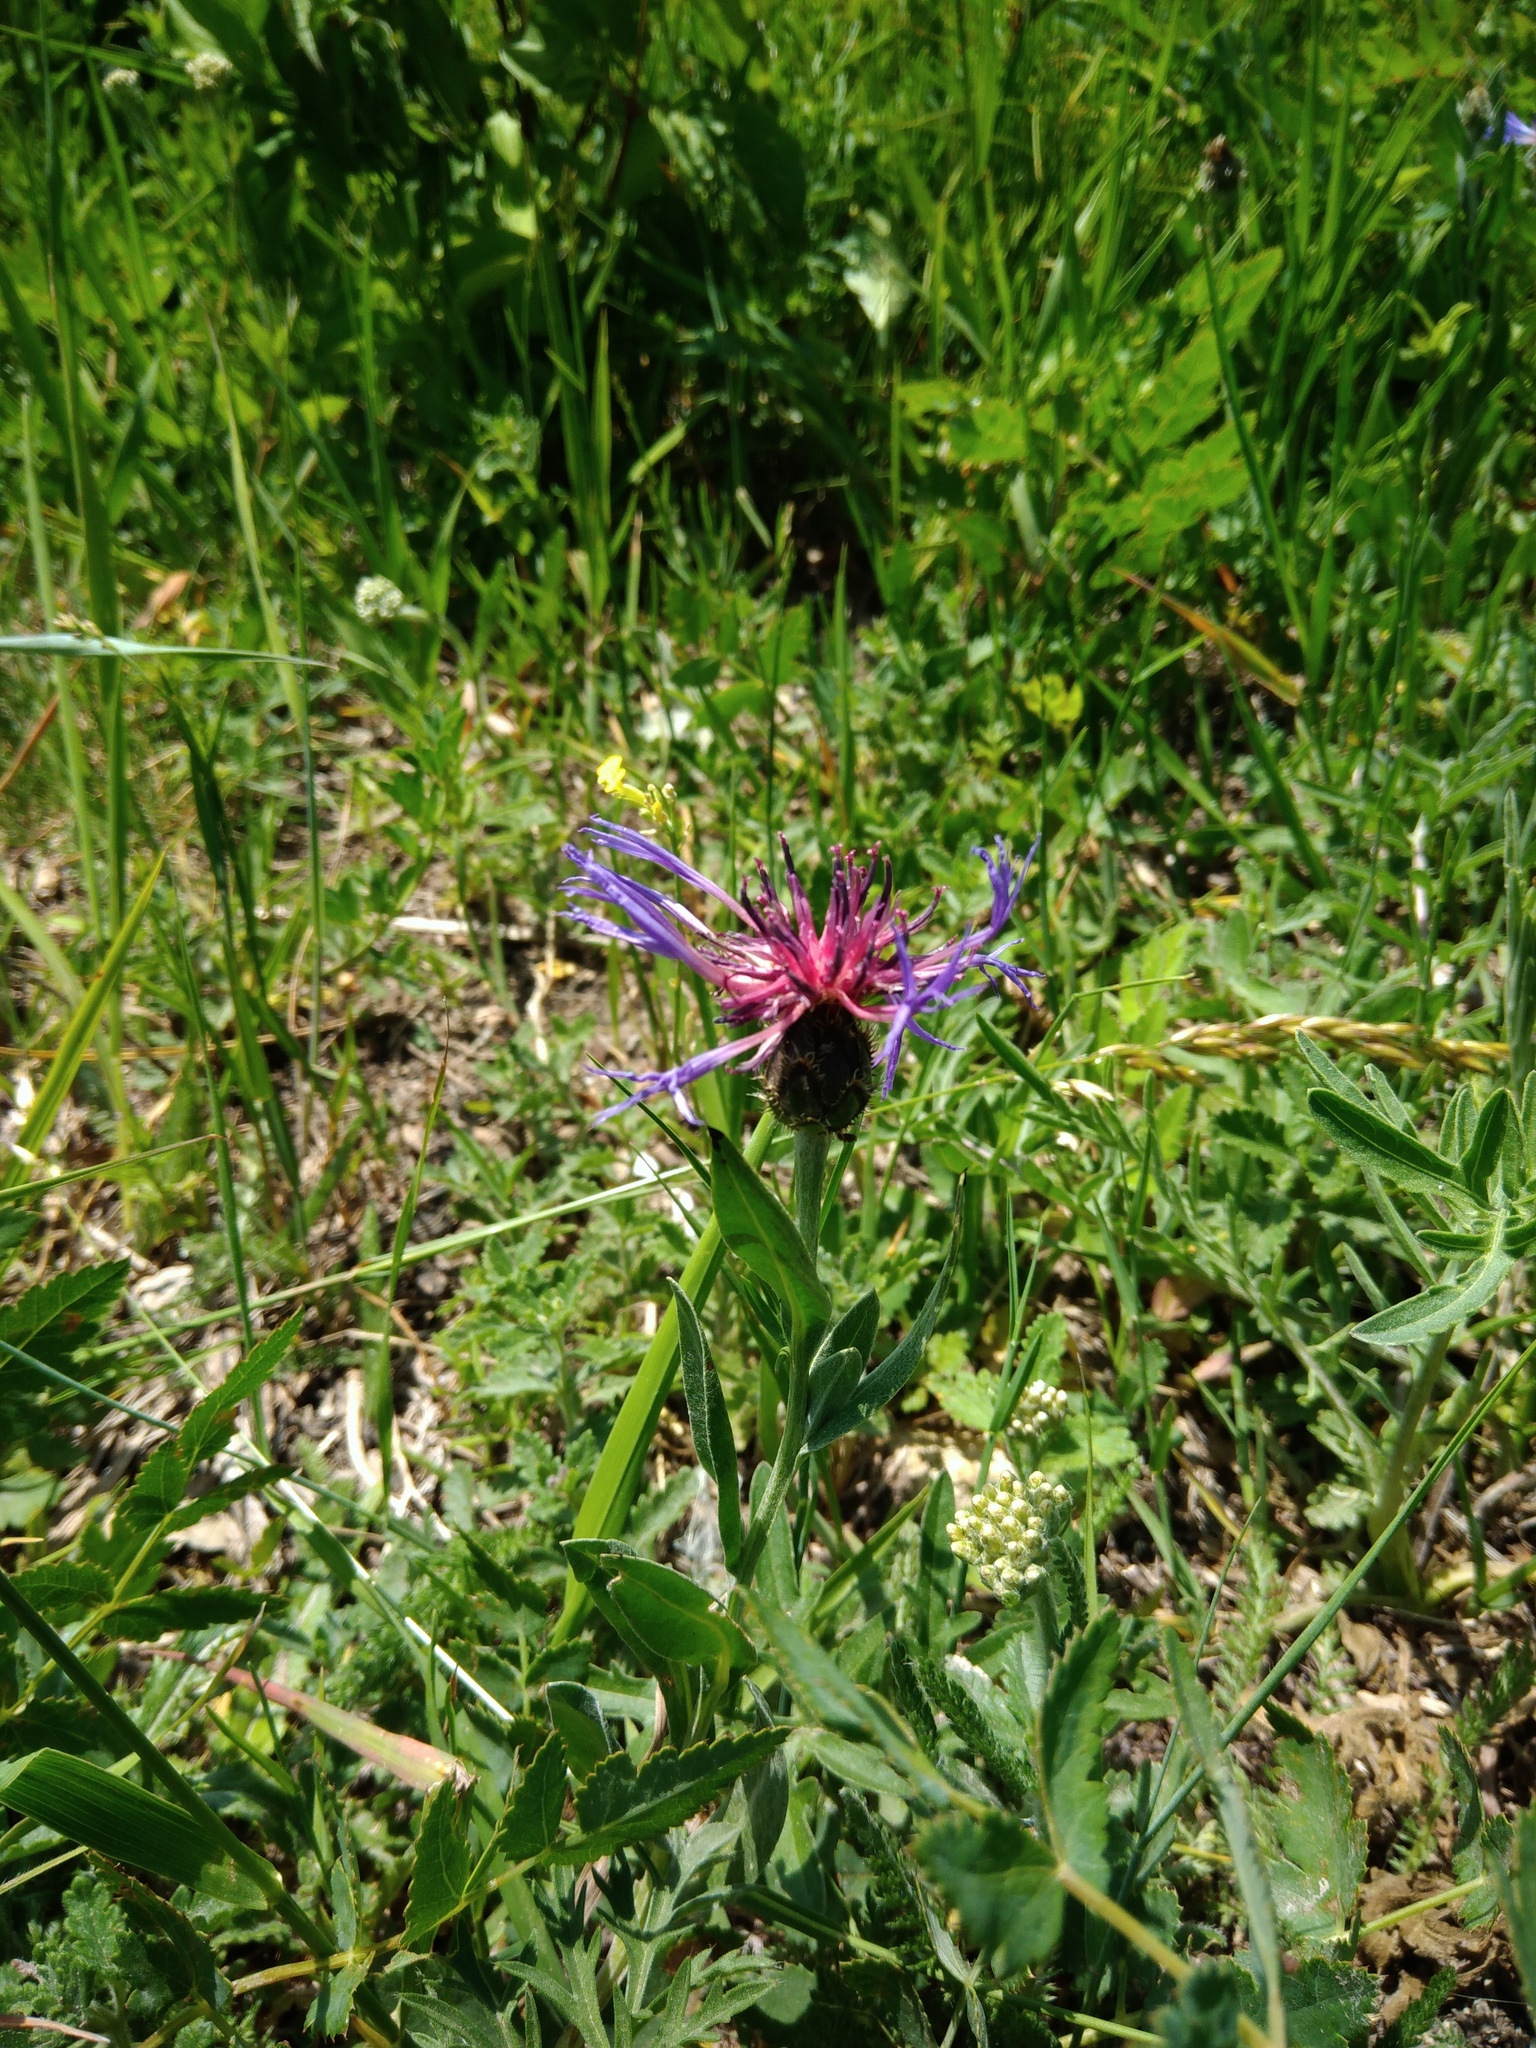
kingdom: Plantae
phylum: Tracheophyta
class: Magnoliopsida
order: Asterales
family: Asteraceae
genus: Centaurea
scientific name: Centaurea triumfettii
